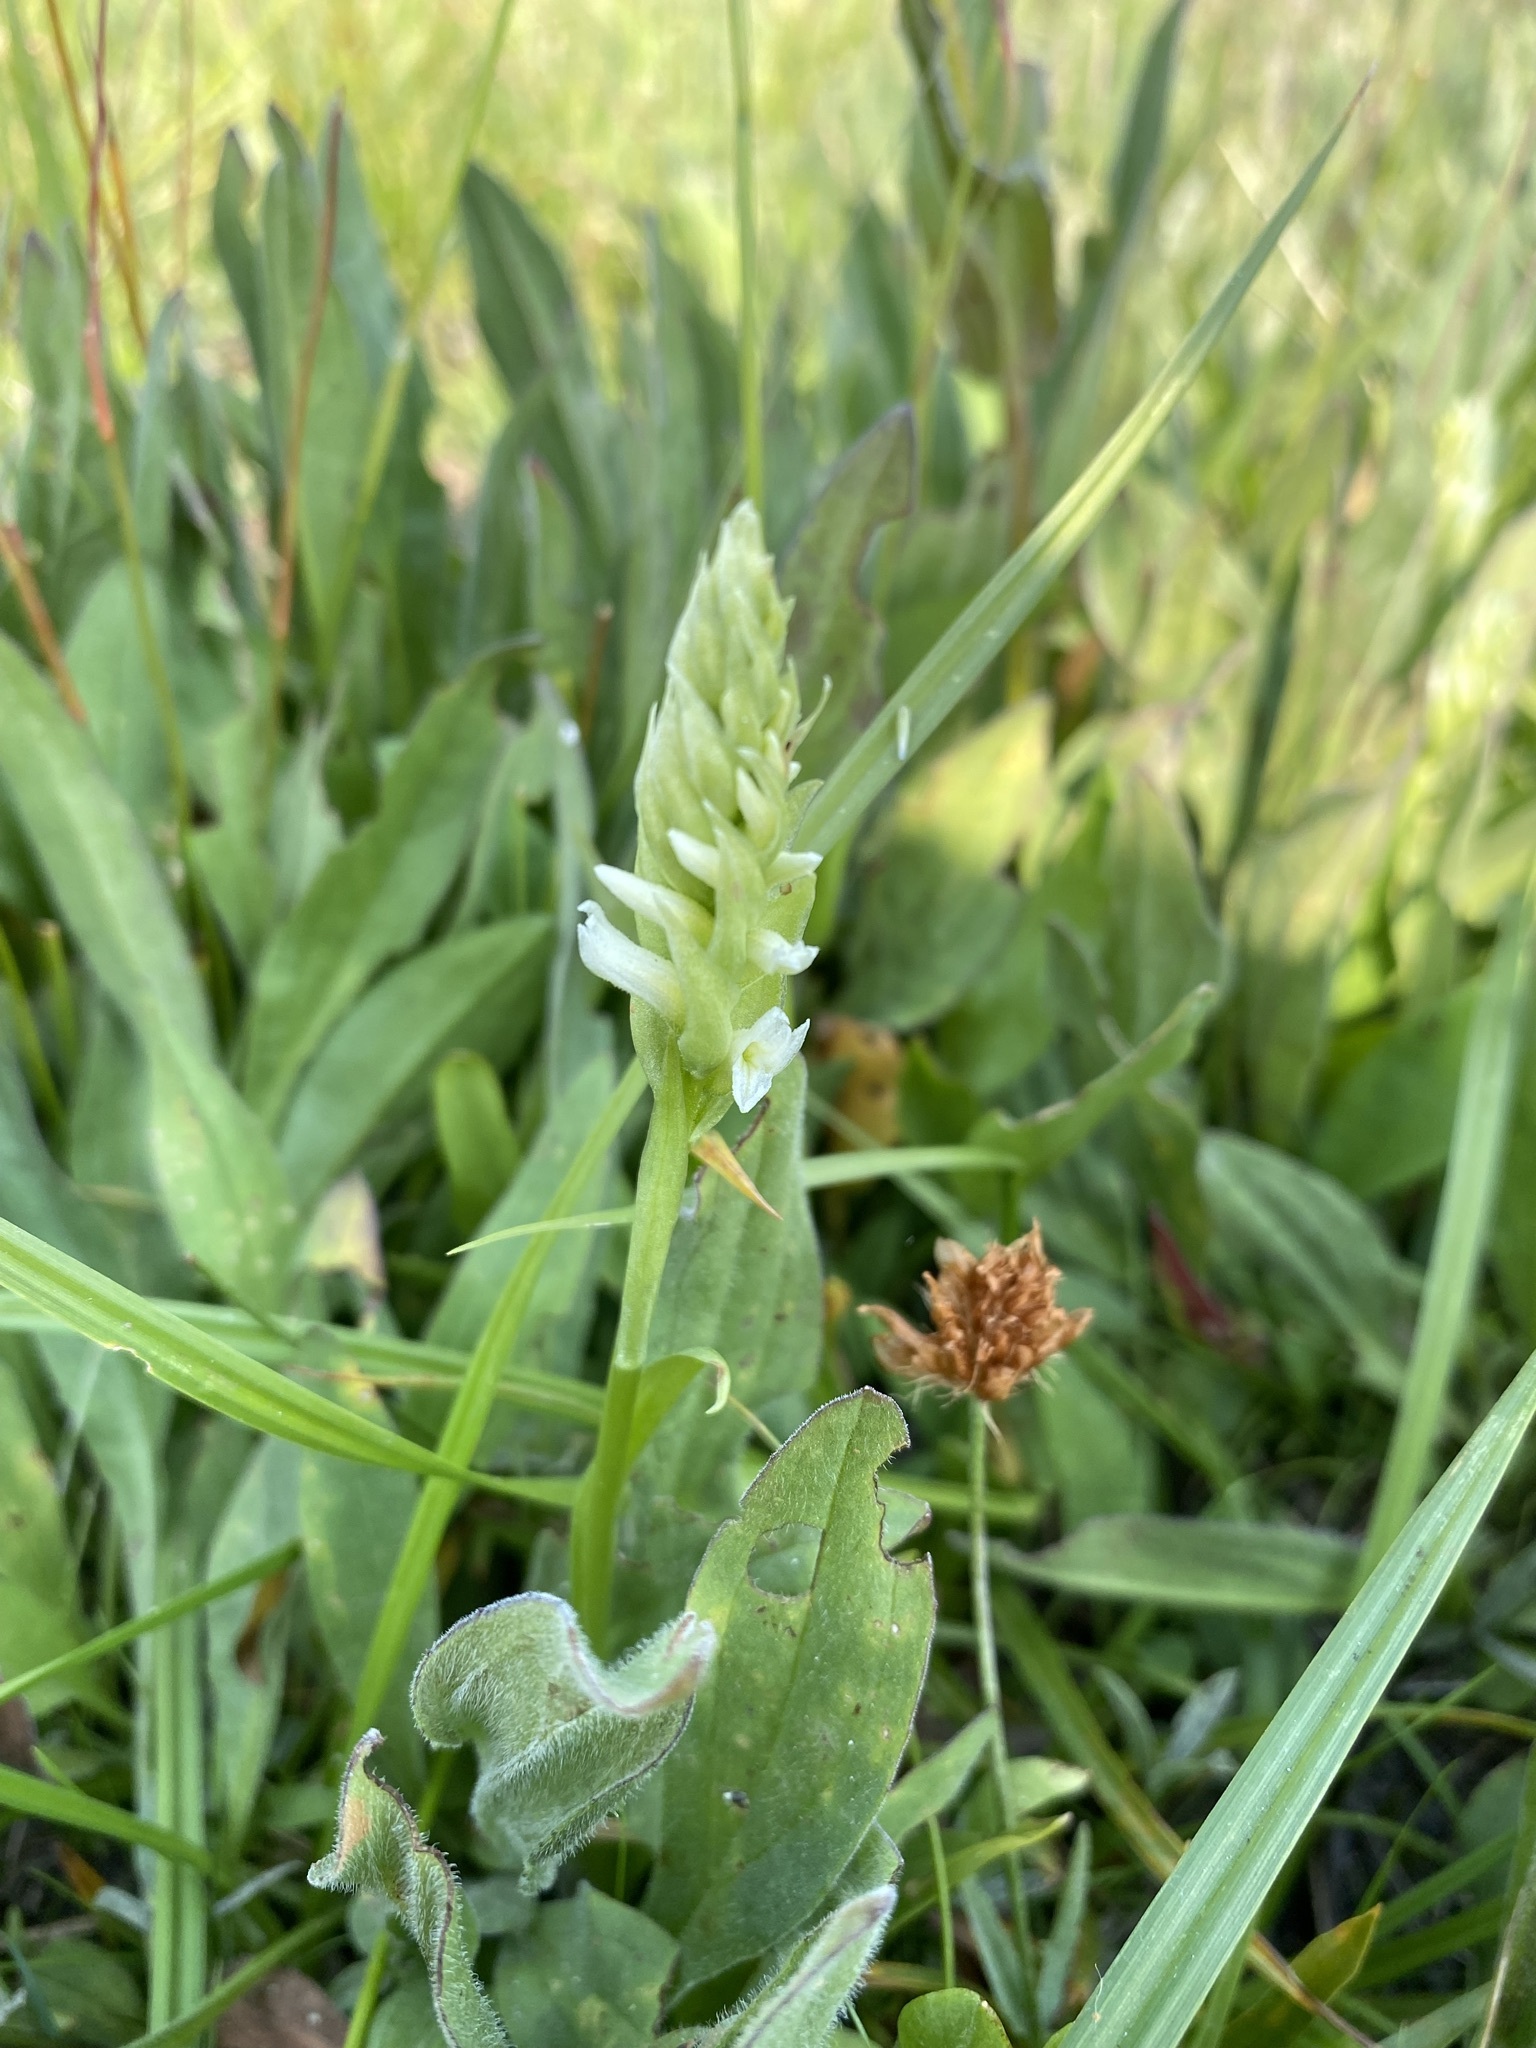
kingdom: Plantae
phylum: Tracheophyta
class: Liliopsida
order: Asparagales
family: Orchidaceae
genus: Spiranthes
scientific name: Spiranthes romanzoffiana
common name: Irish lady's-tresses
